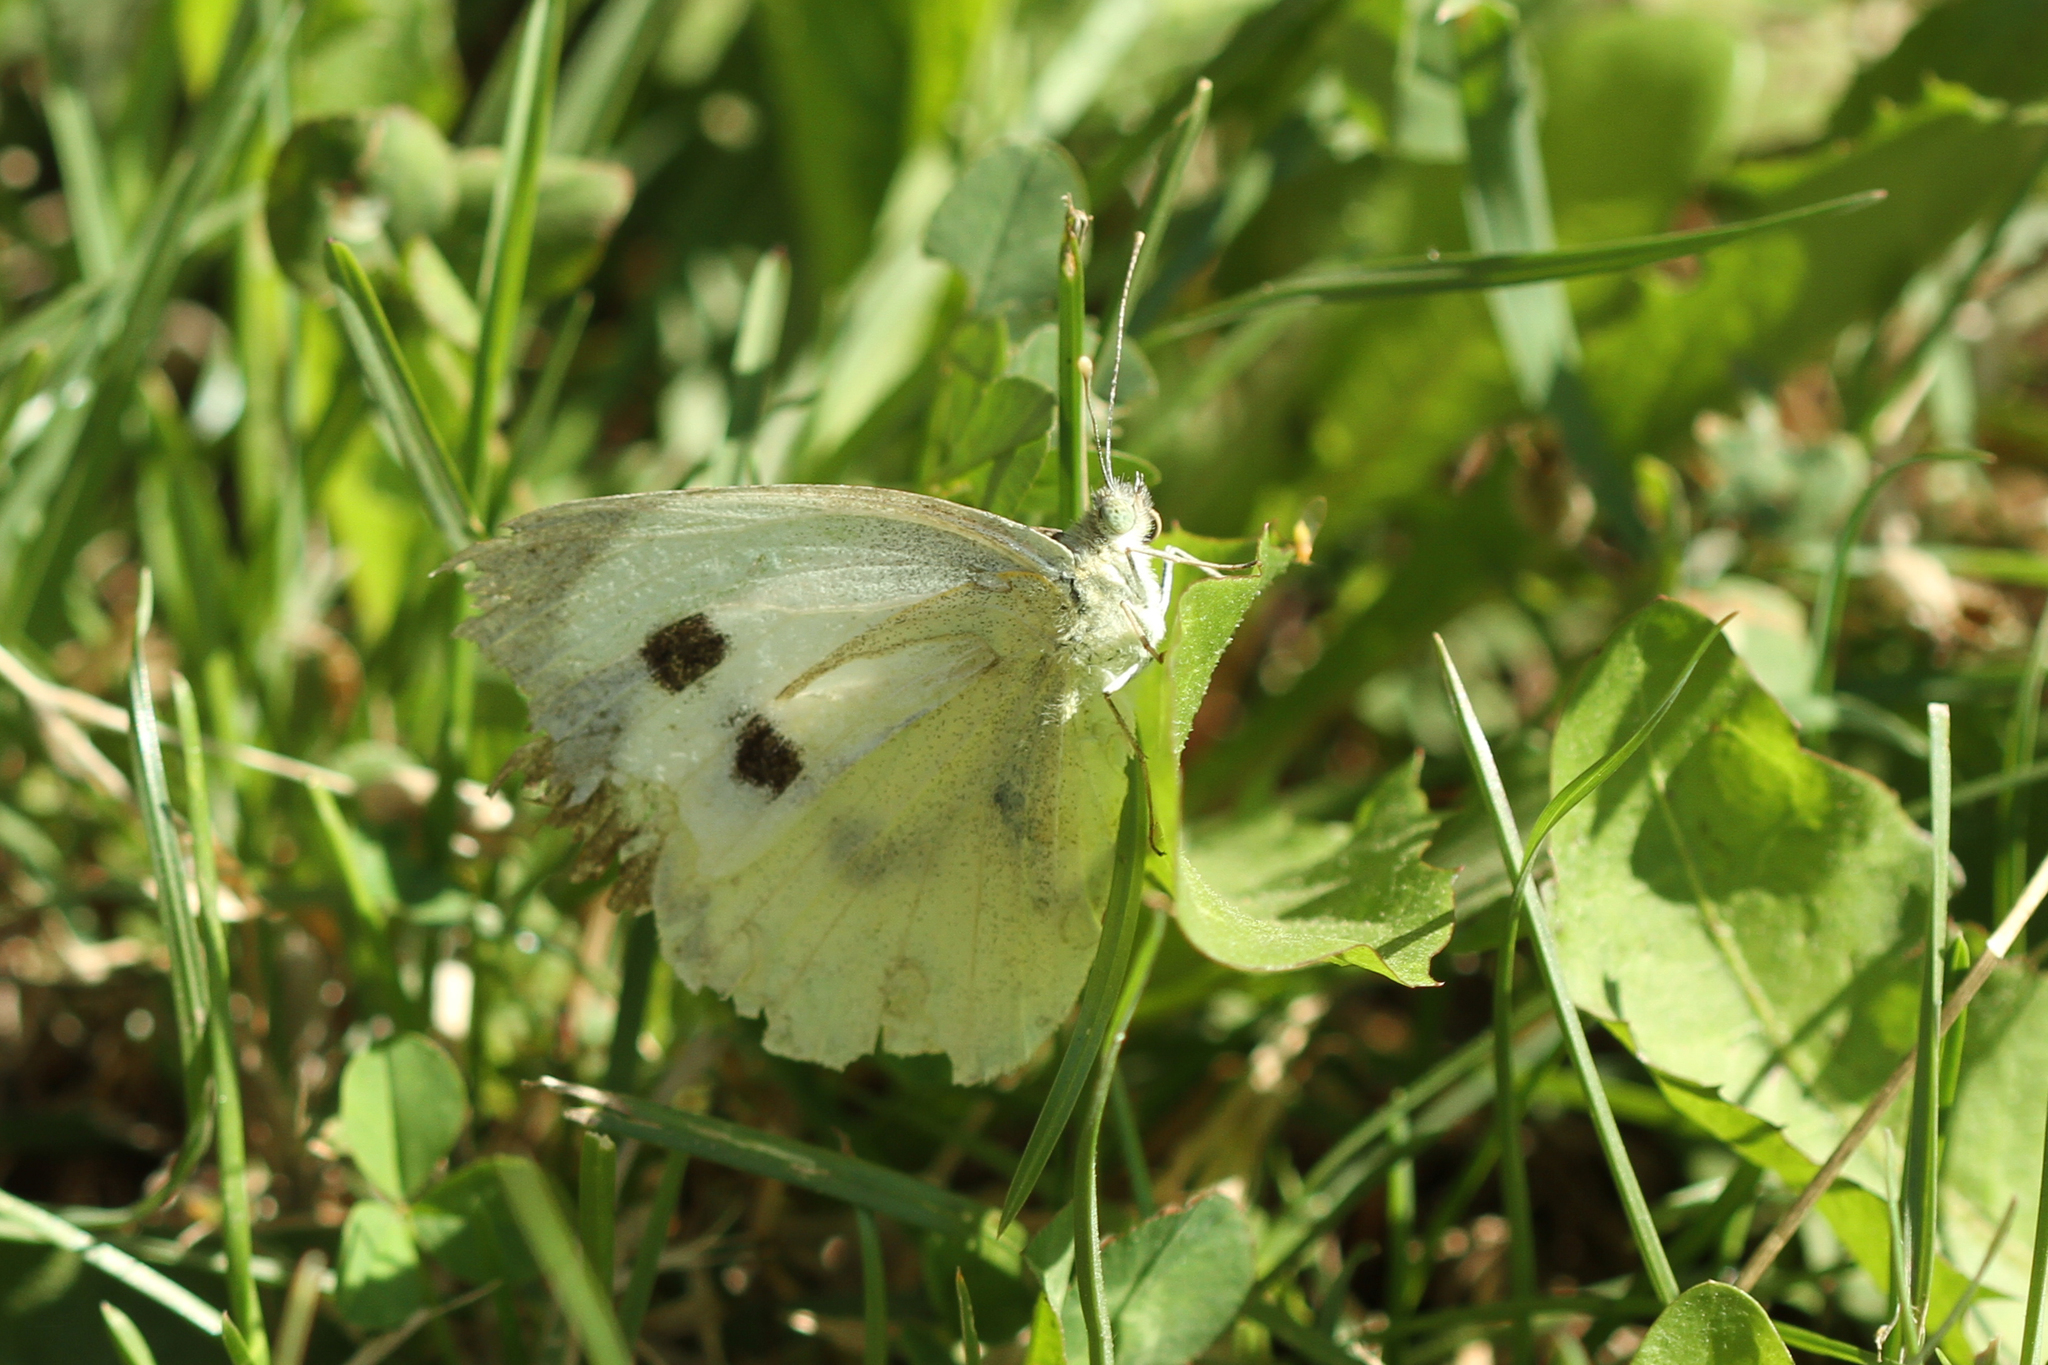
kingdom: Animalia
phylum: Arthropoda
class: Insecta
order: Lepidoptera
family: Pieridae
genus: Pieris
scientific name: Pieris brassicae
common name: Large white
